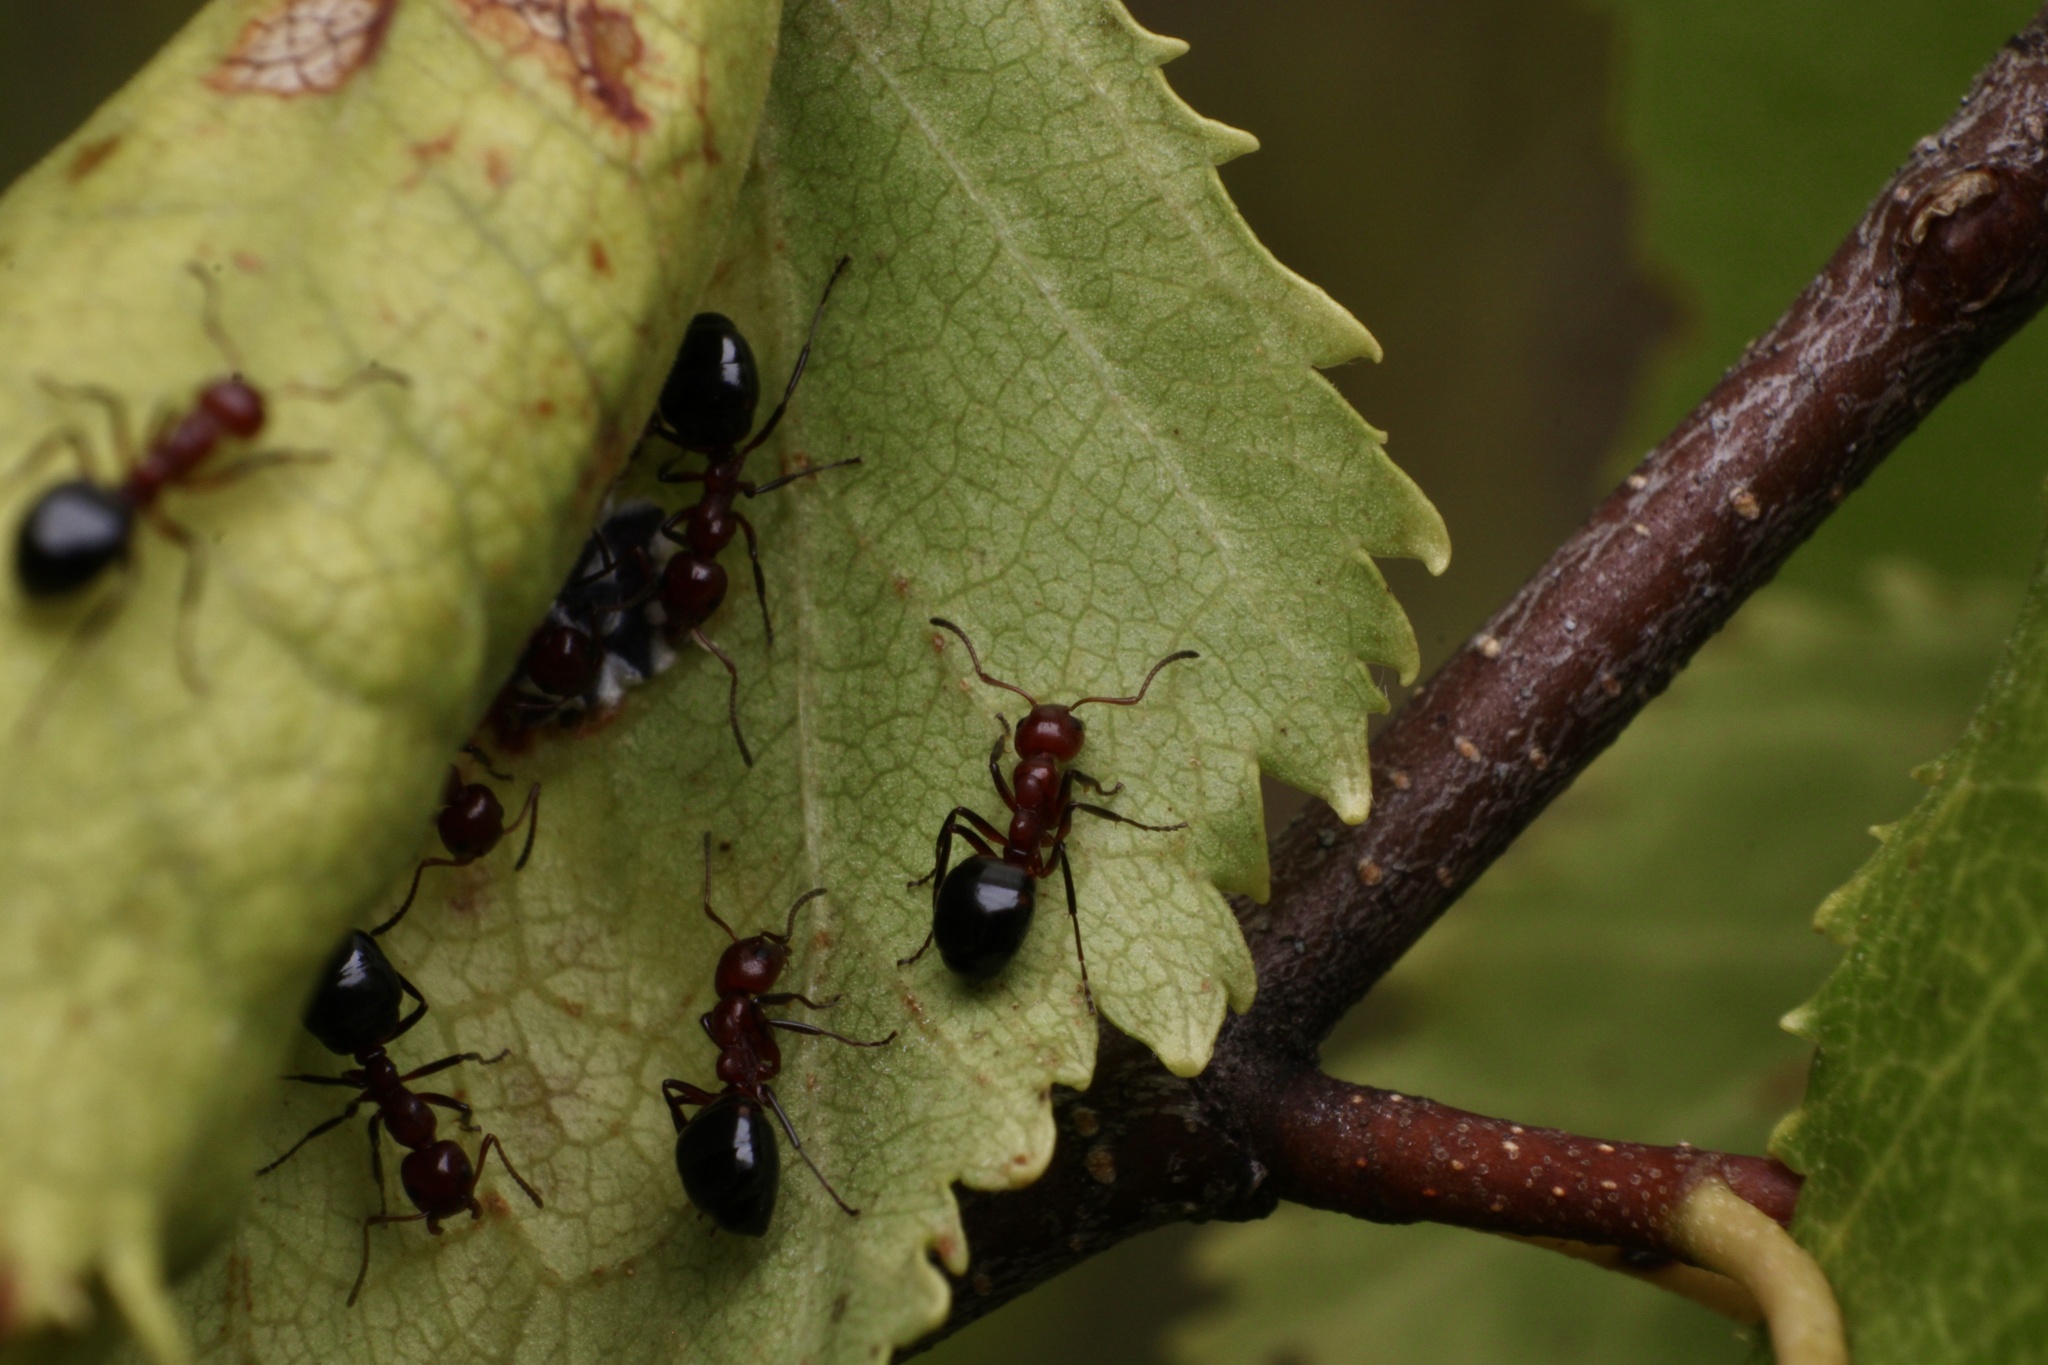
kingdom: Animalia
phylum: Arthropoda
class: Insecta
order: Hymenoptera
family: Formicidae
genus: Dolichoderus
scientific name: Dolichoderus mariae
